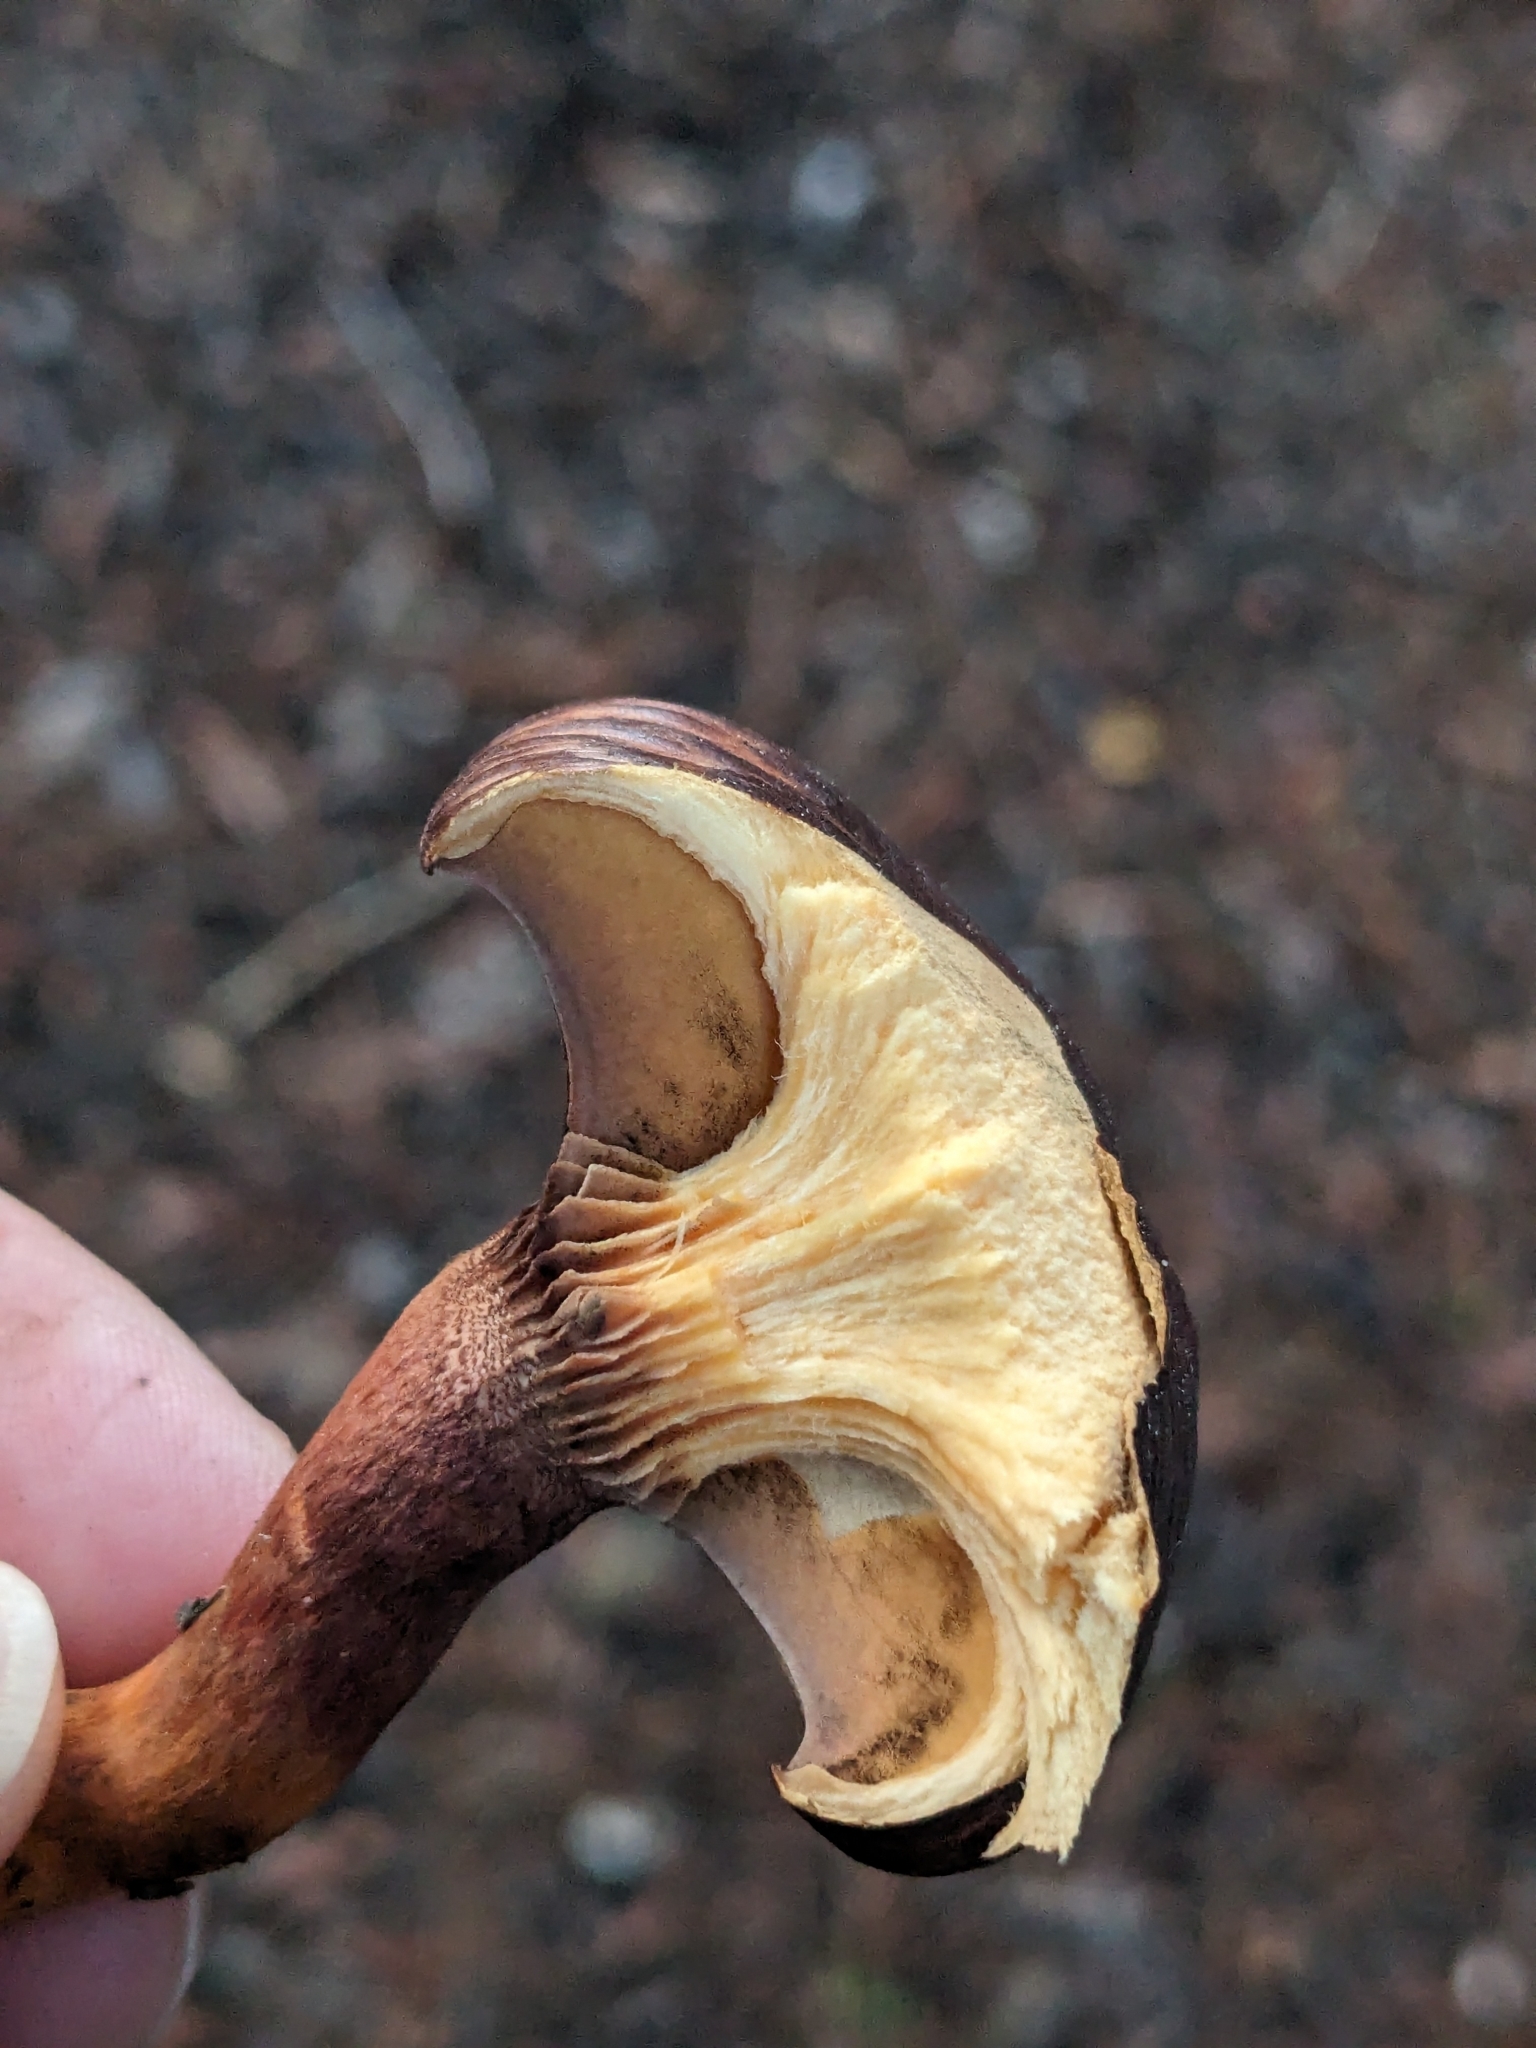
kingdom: Fungi
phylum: Basidiomycota
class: Agaricomycetes
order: Boletales
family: Gomphidiaceae
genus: Chroogomphus
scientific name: Chroogomphus vinicolor
